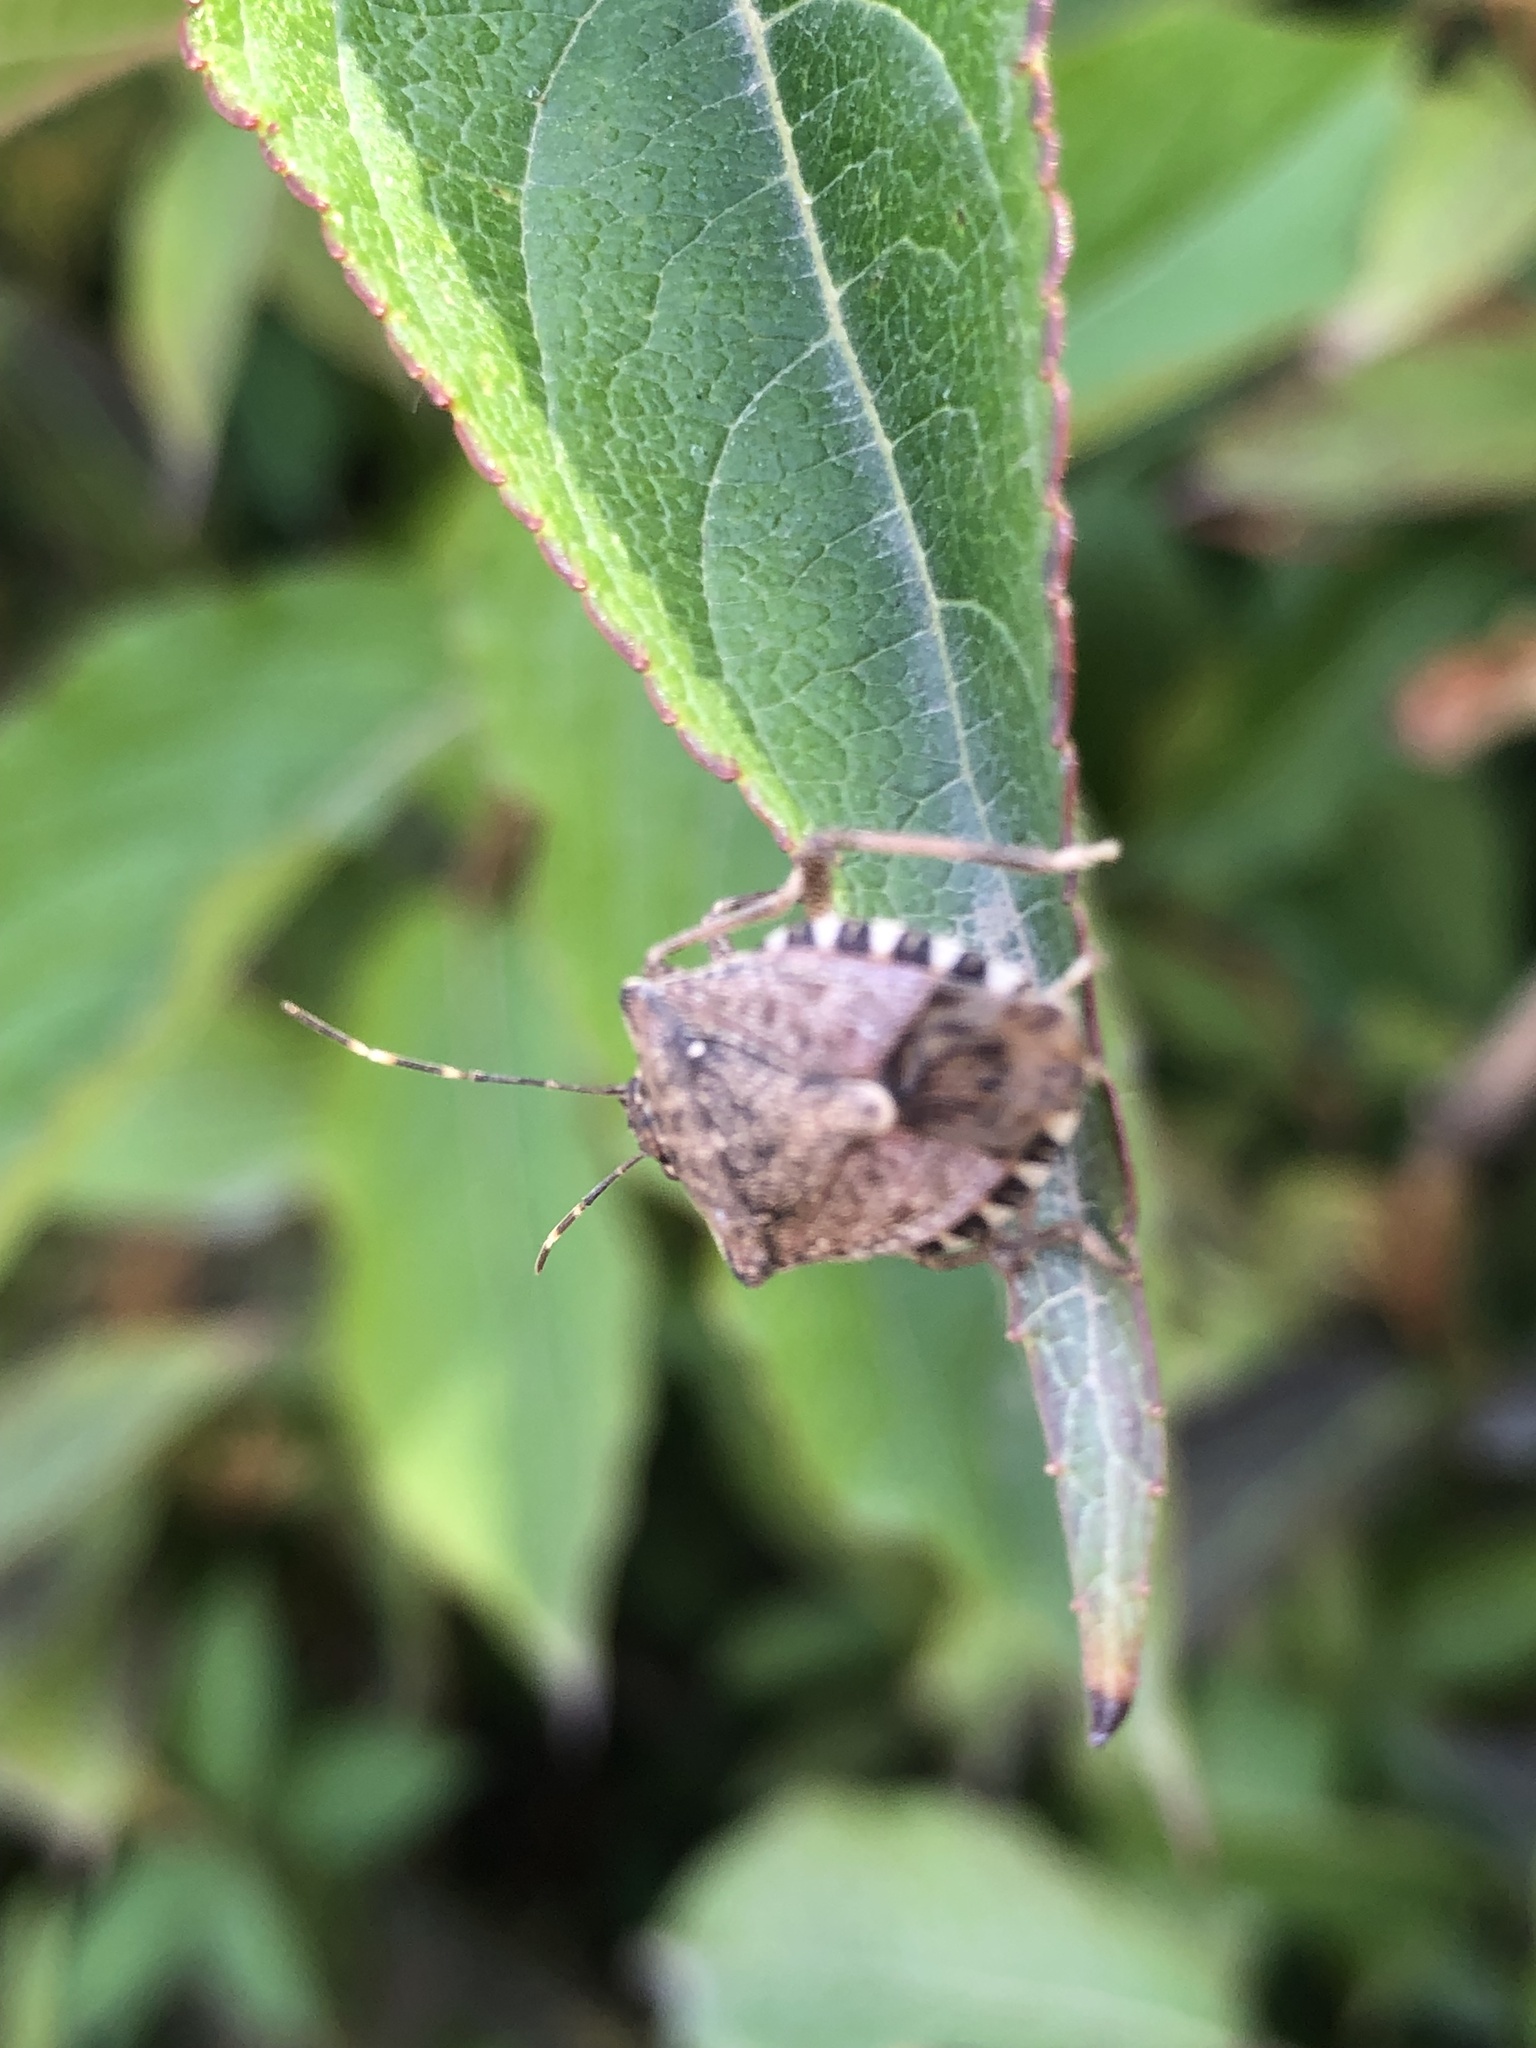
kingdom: Animalia
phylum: Arthropoda
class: Insecta
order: Hemiptera
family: Pentatomidae
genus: Halyomorpha
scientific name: Halyomorpha halys
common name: Brown marmorated stink bug
